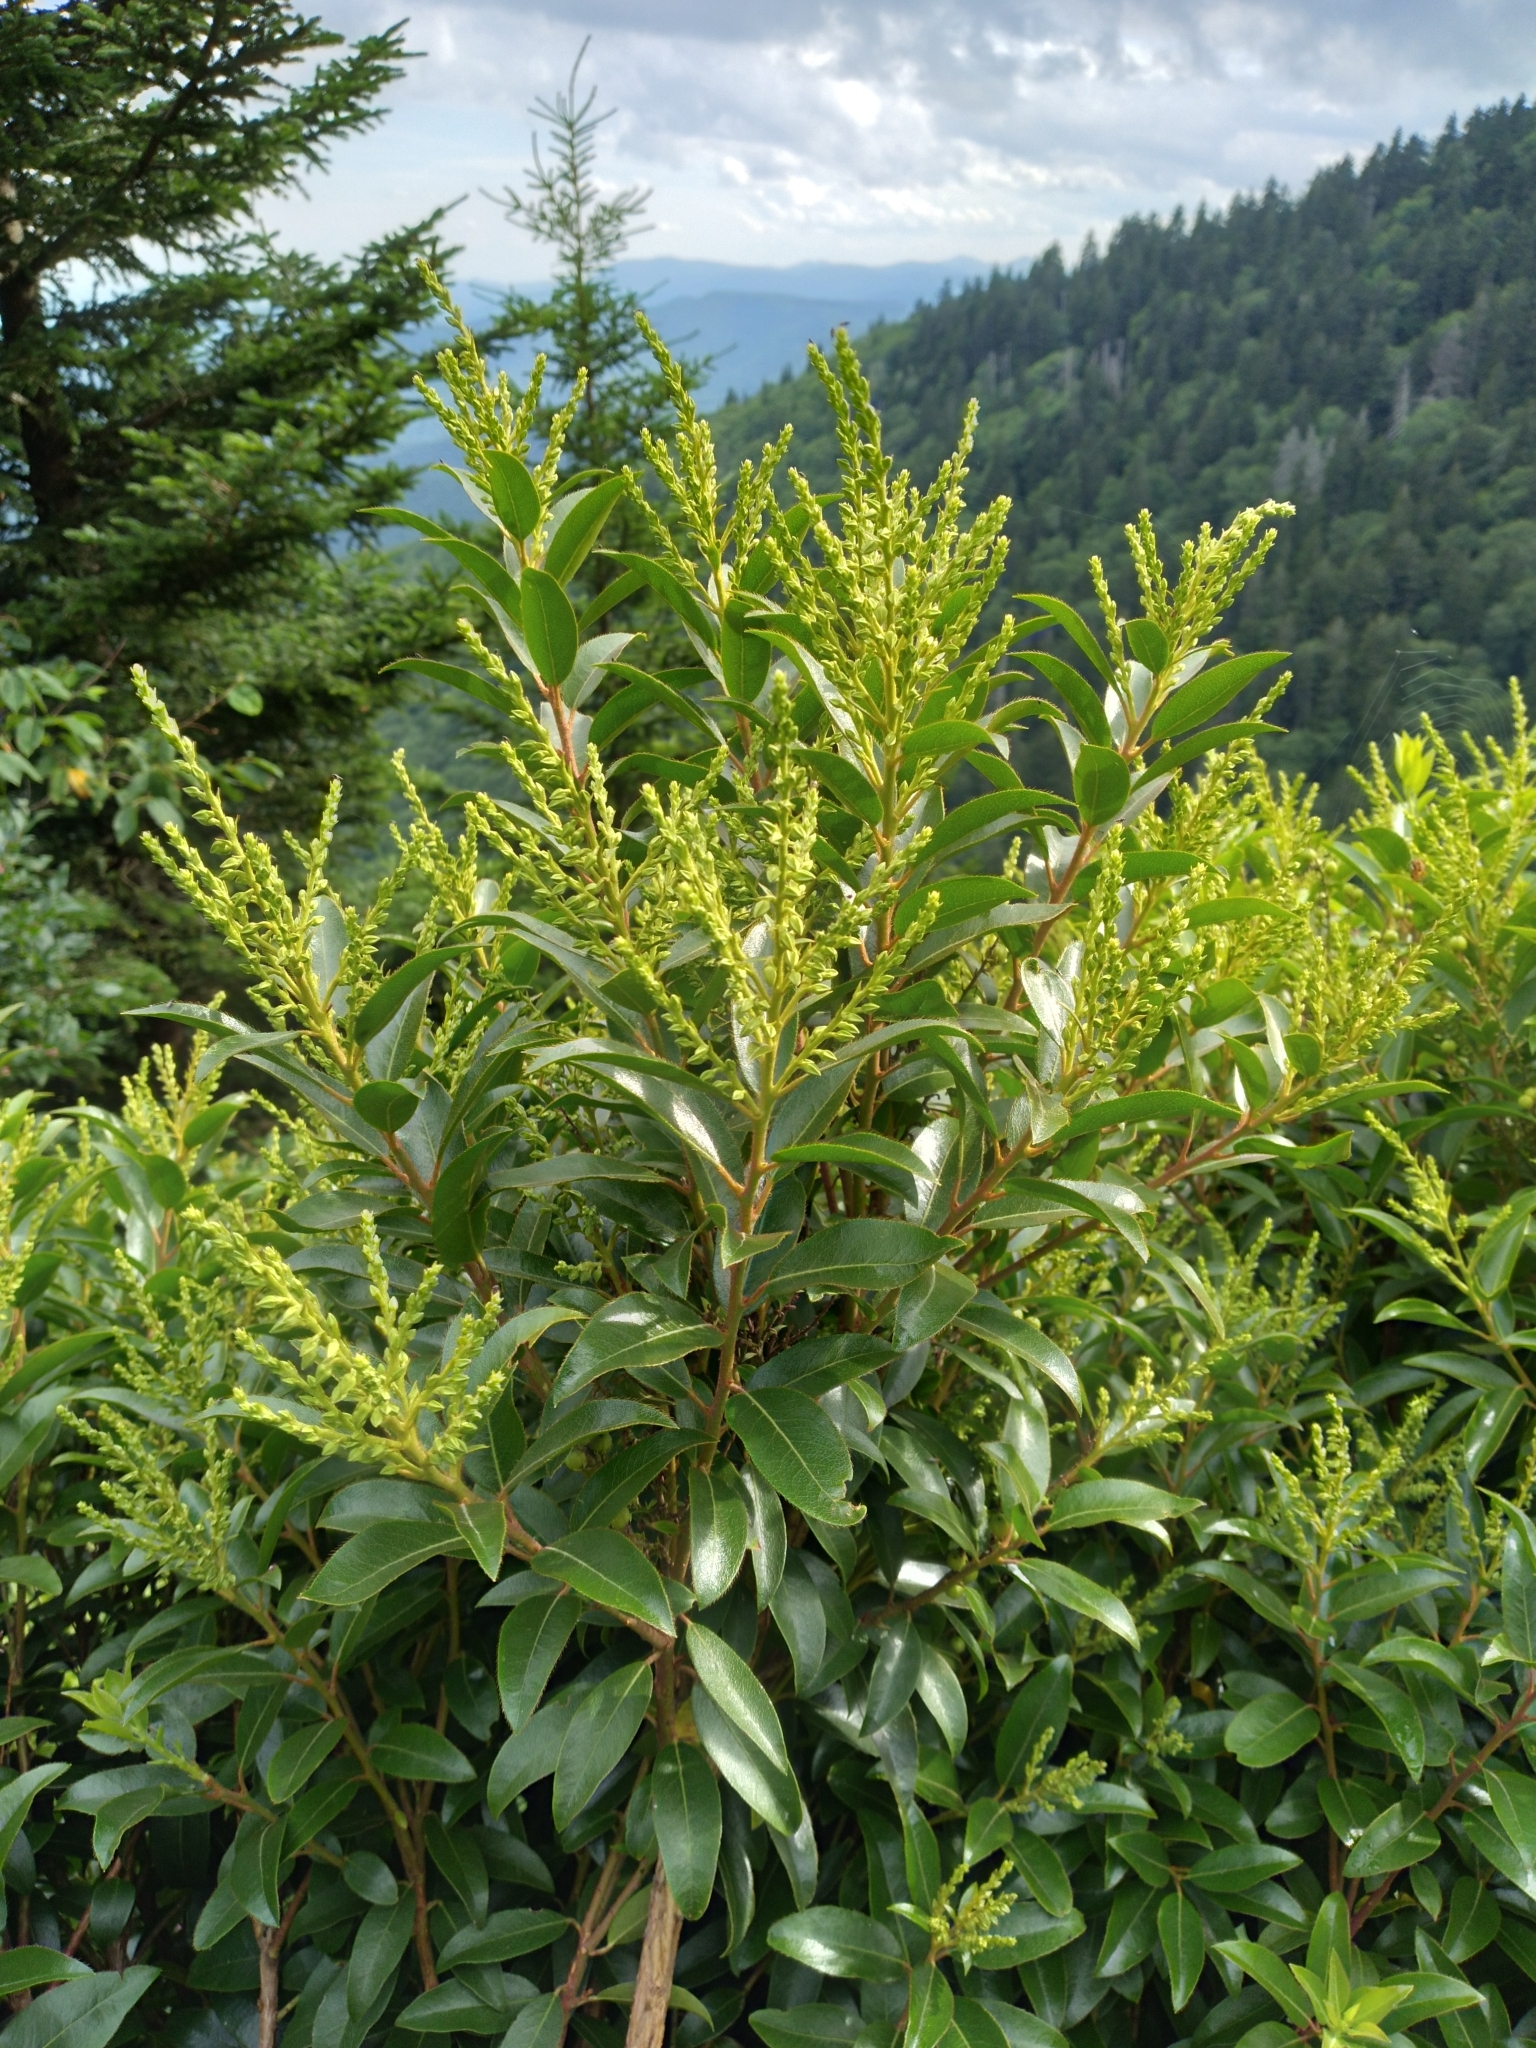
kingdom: Plantae
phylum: Tracheophyta
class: Magnoliopsida
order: Ericales
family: Ericaceae
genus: Pieris
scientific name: Pieris floribunda
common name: Flutterbush
